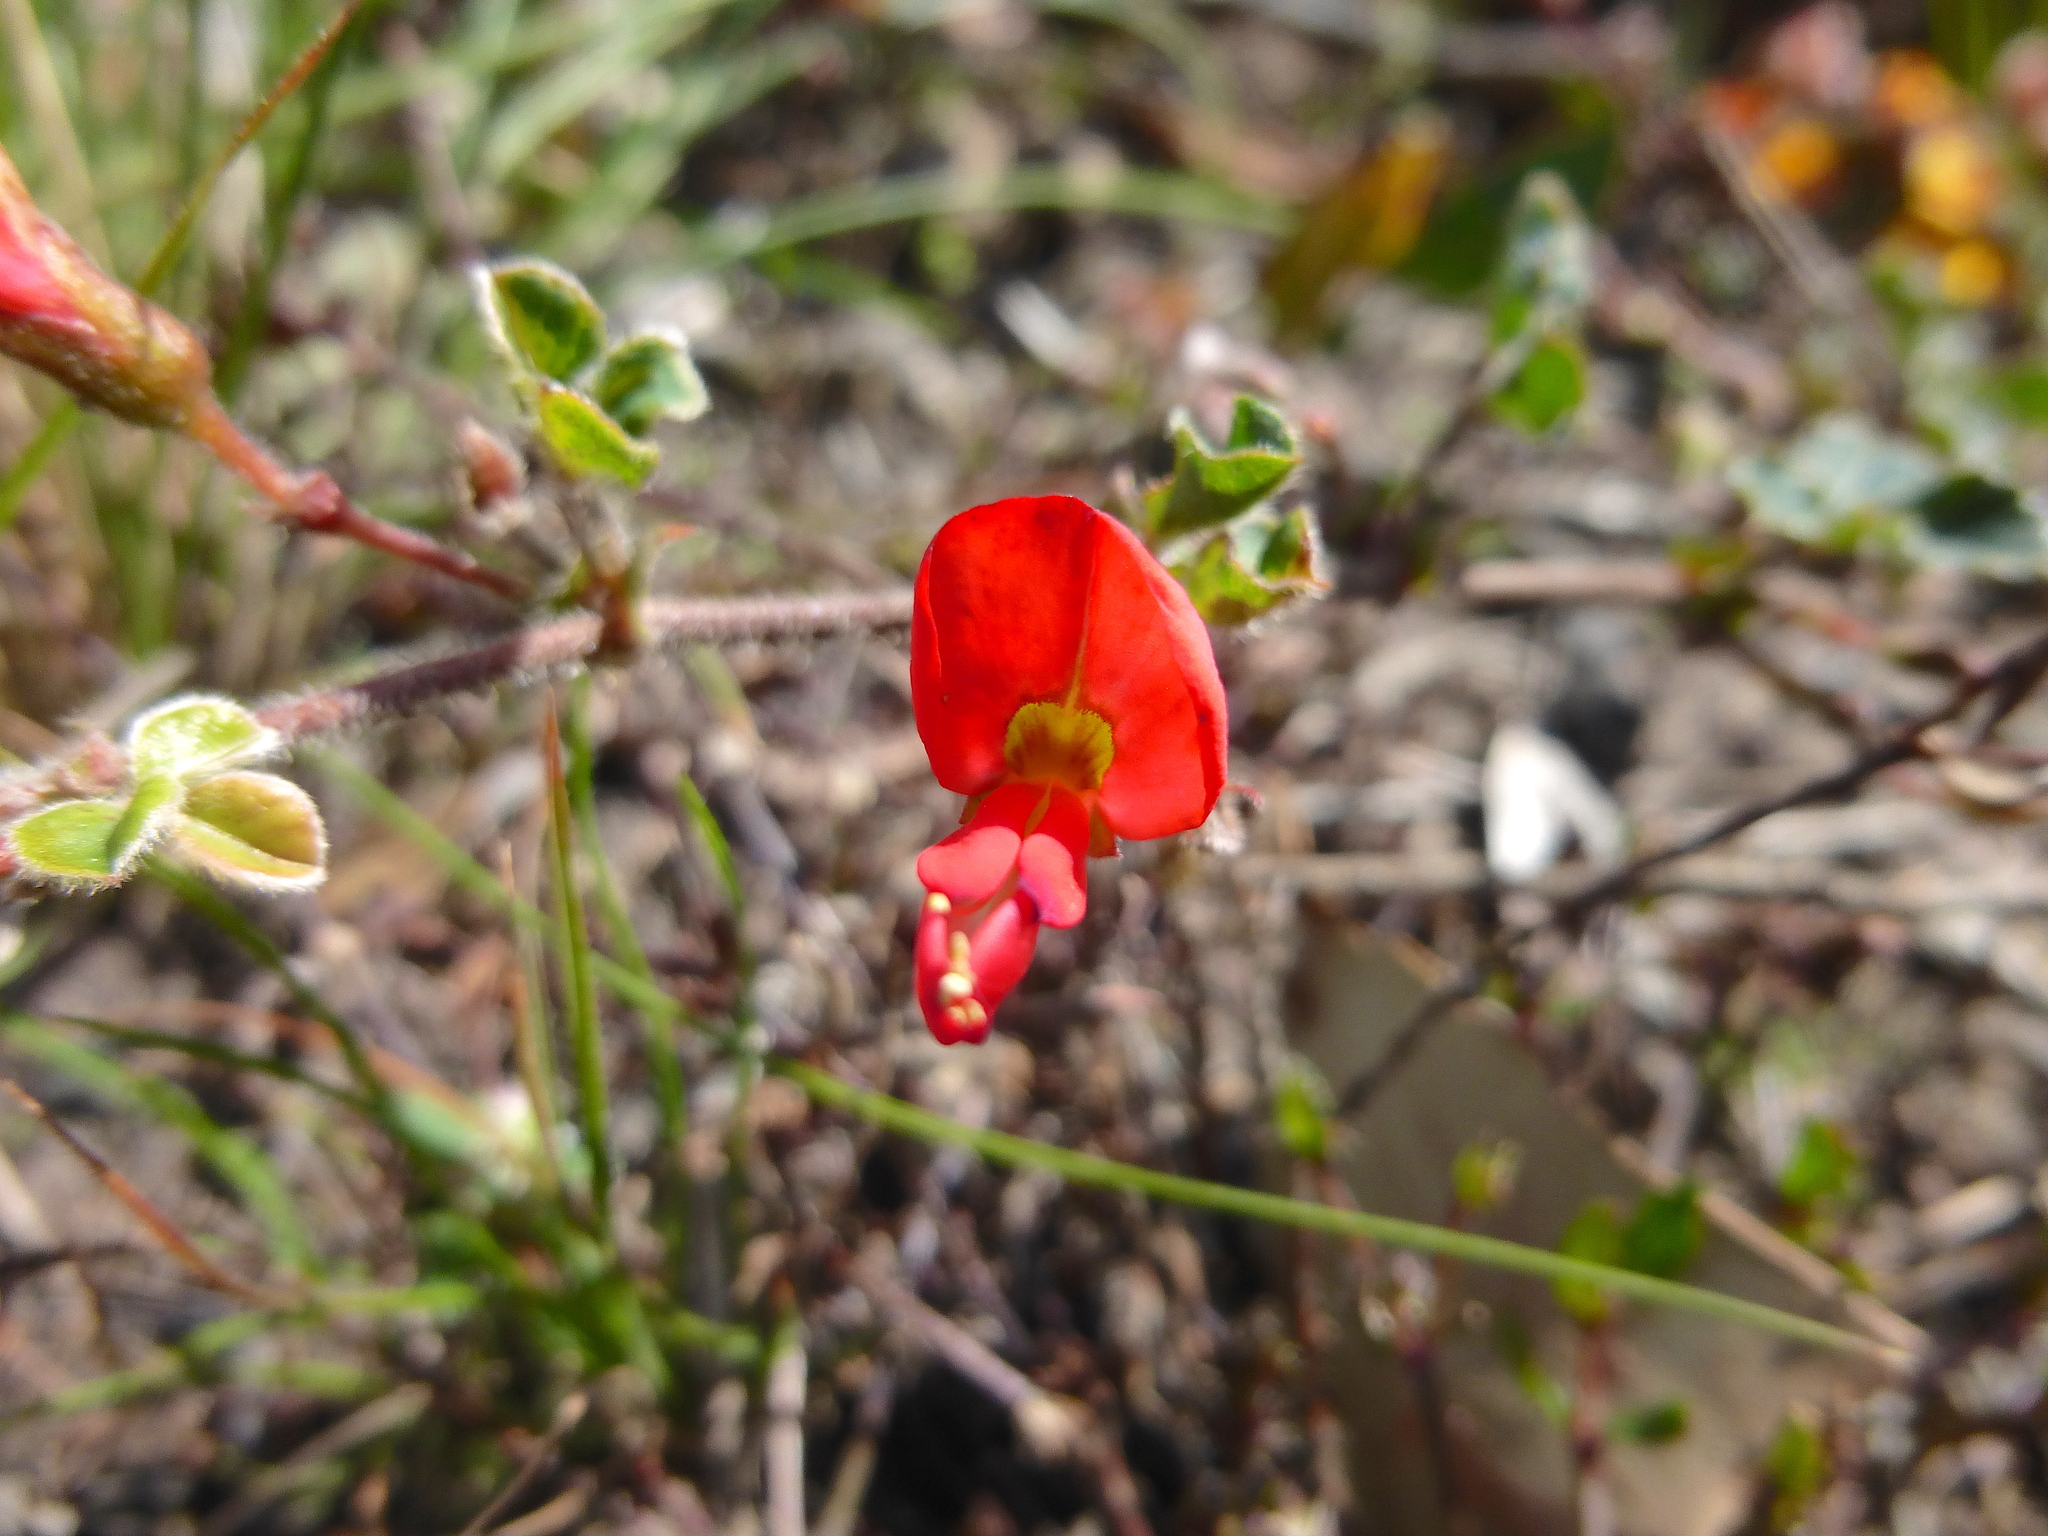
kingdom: Plantae
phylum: Tracheophyta
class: Magnoliopsida
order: Fabales
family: Fabaceae
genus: Kennedia
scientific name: Kennedia prostrata
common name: Running-postman
